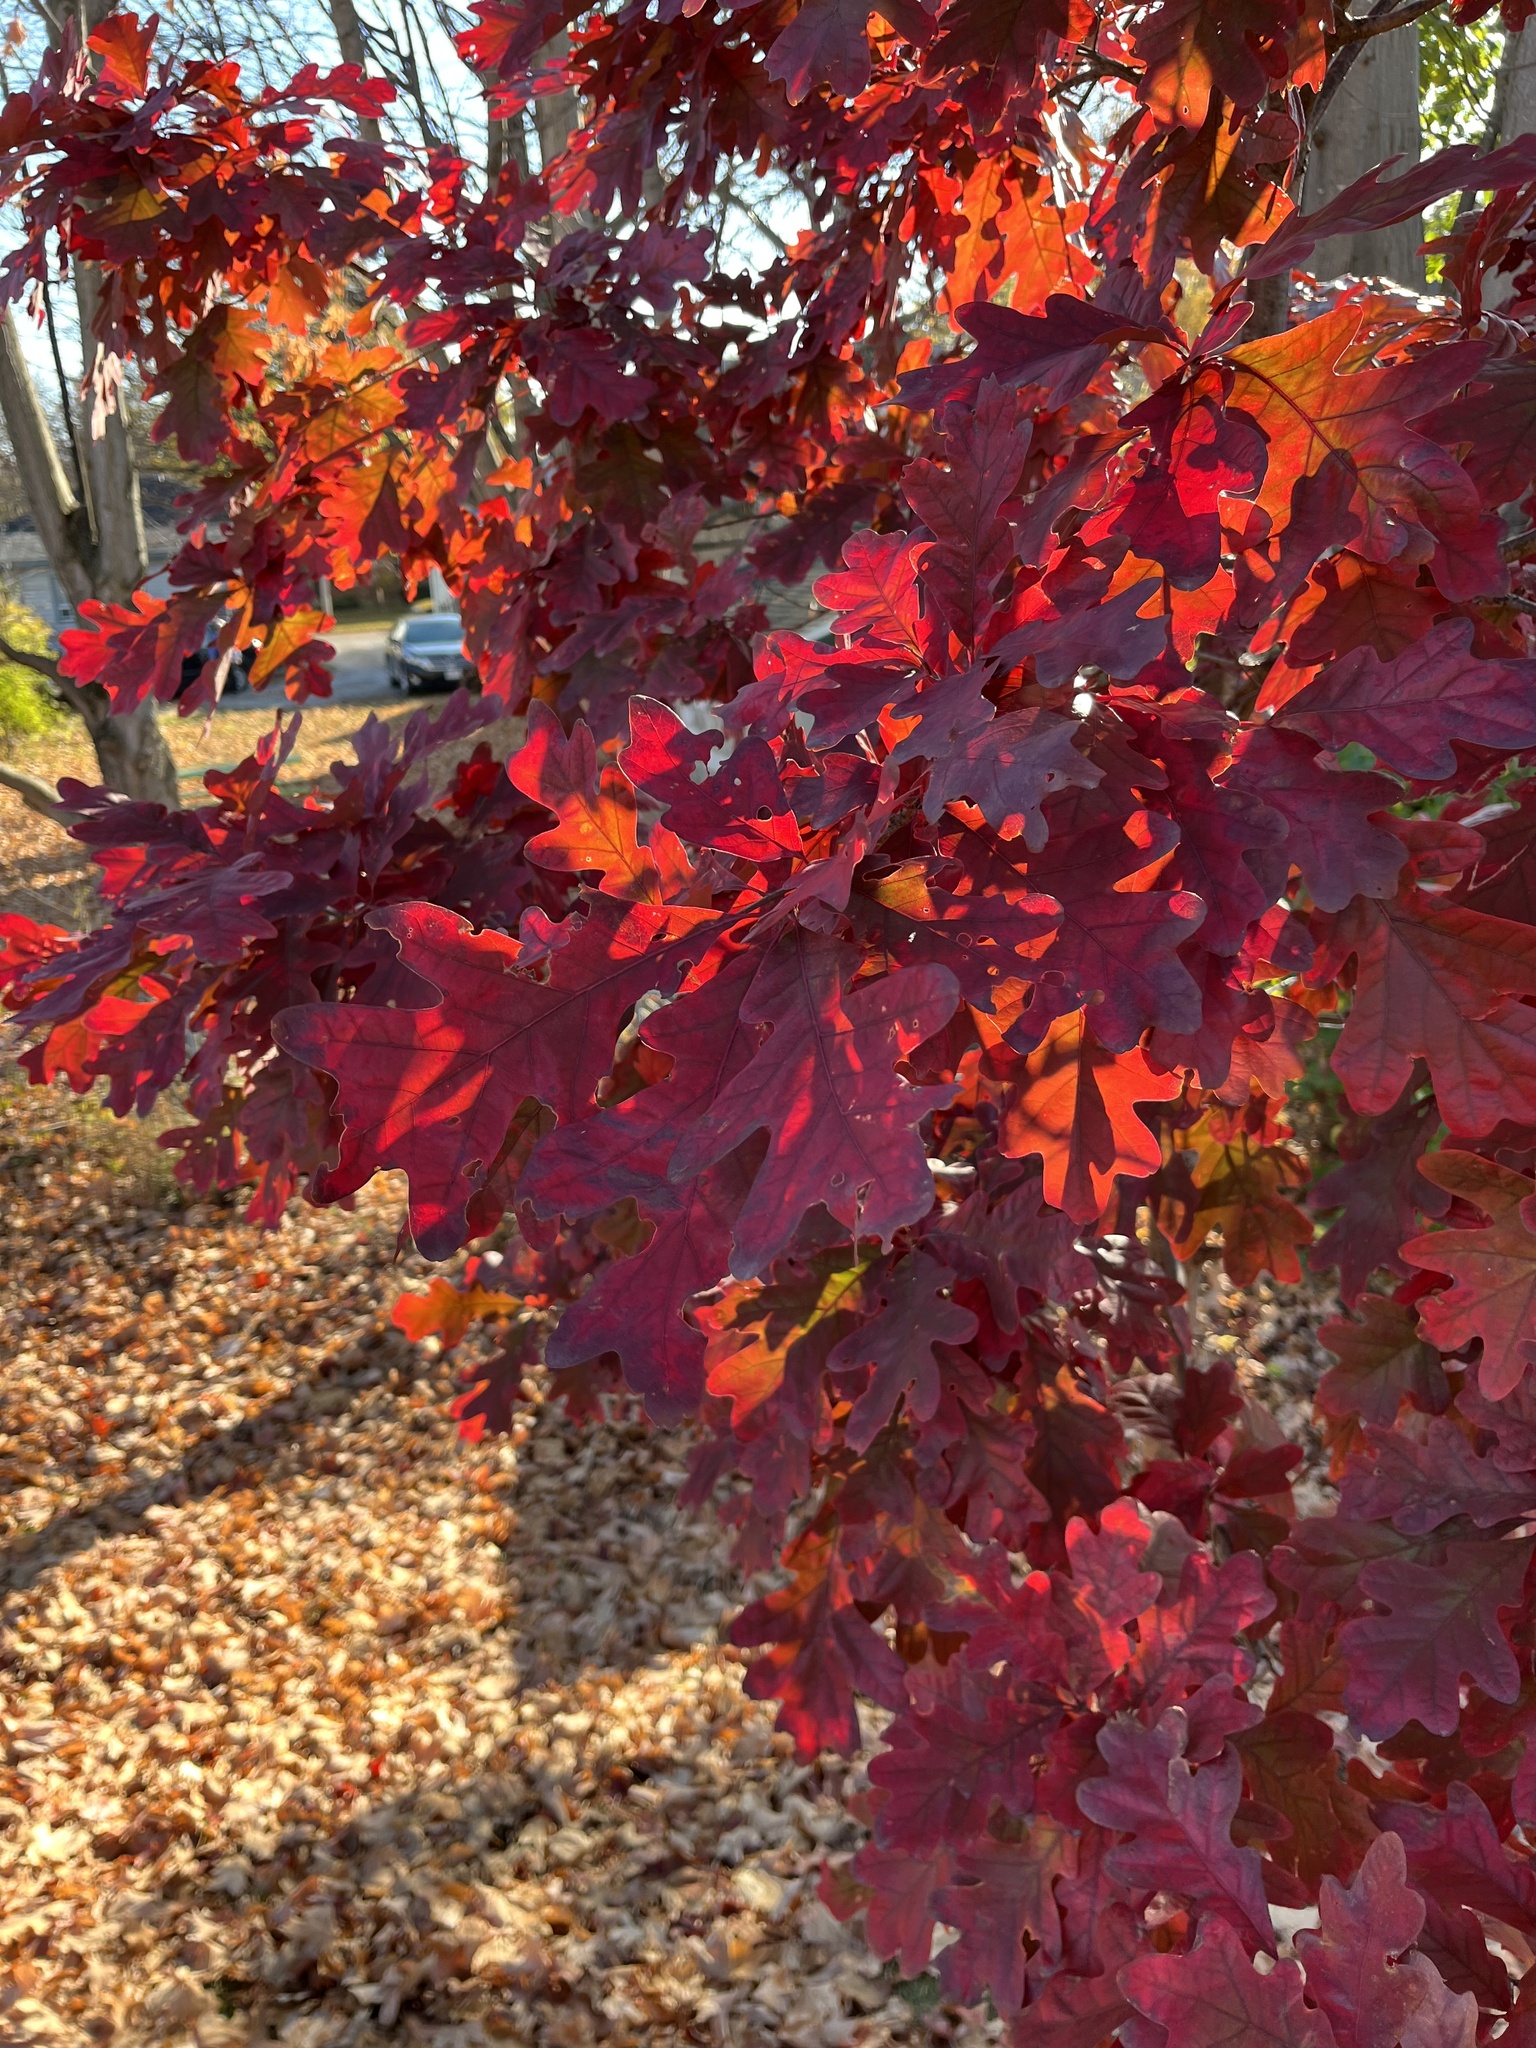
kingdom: Plantae
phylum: Tracheophyta
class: Magnoliopsida
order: Fagales
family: Fagaceae
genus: Quercus
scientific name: Quercus alba
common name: White oak
